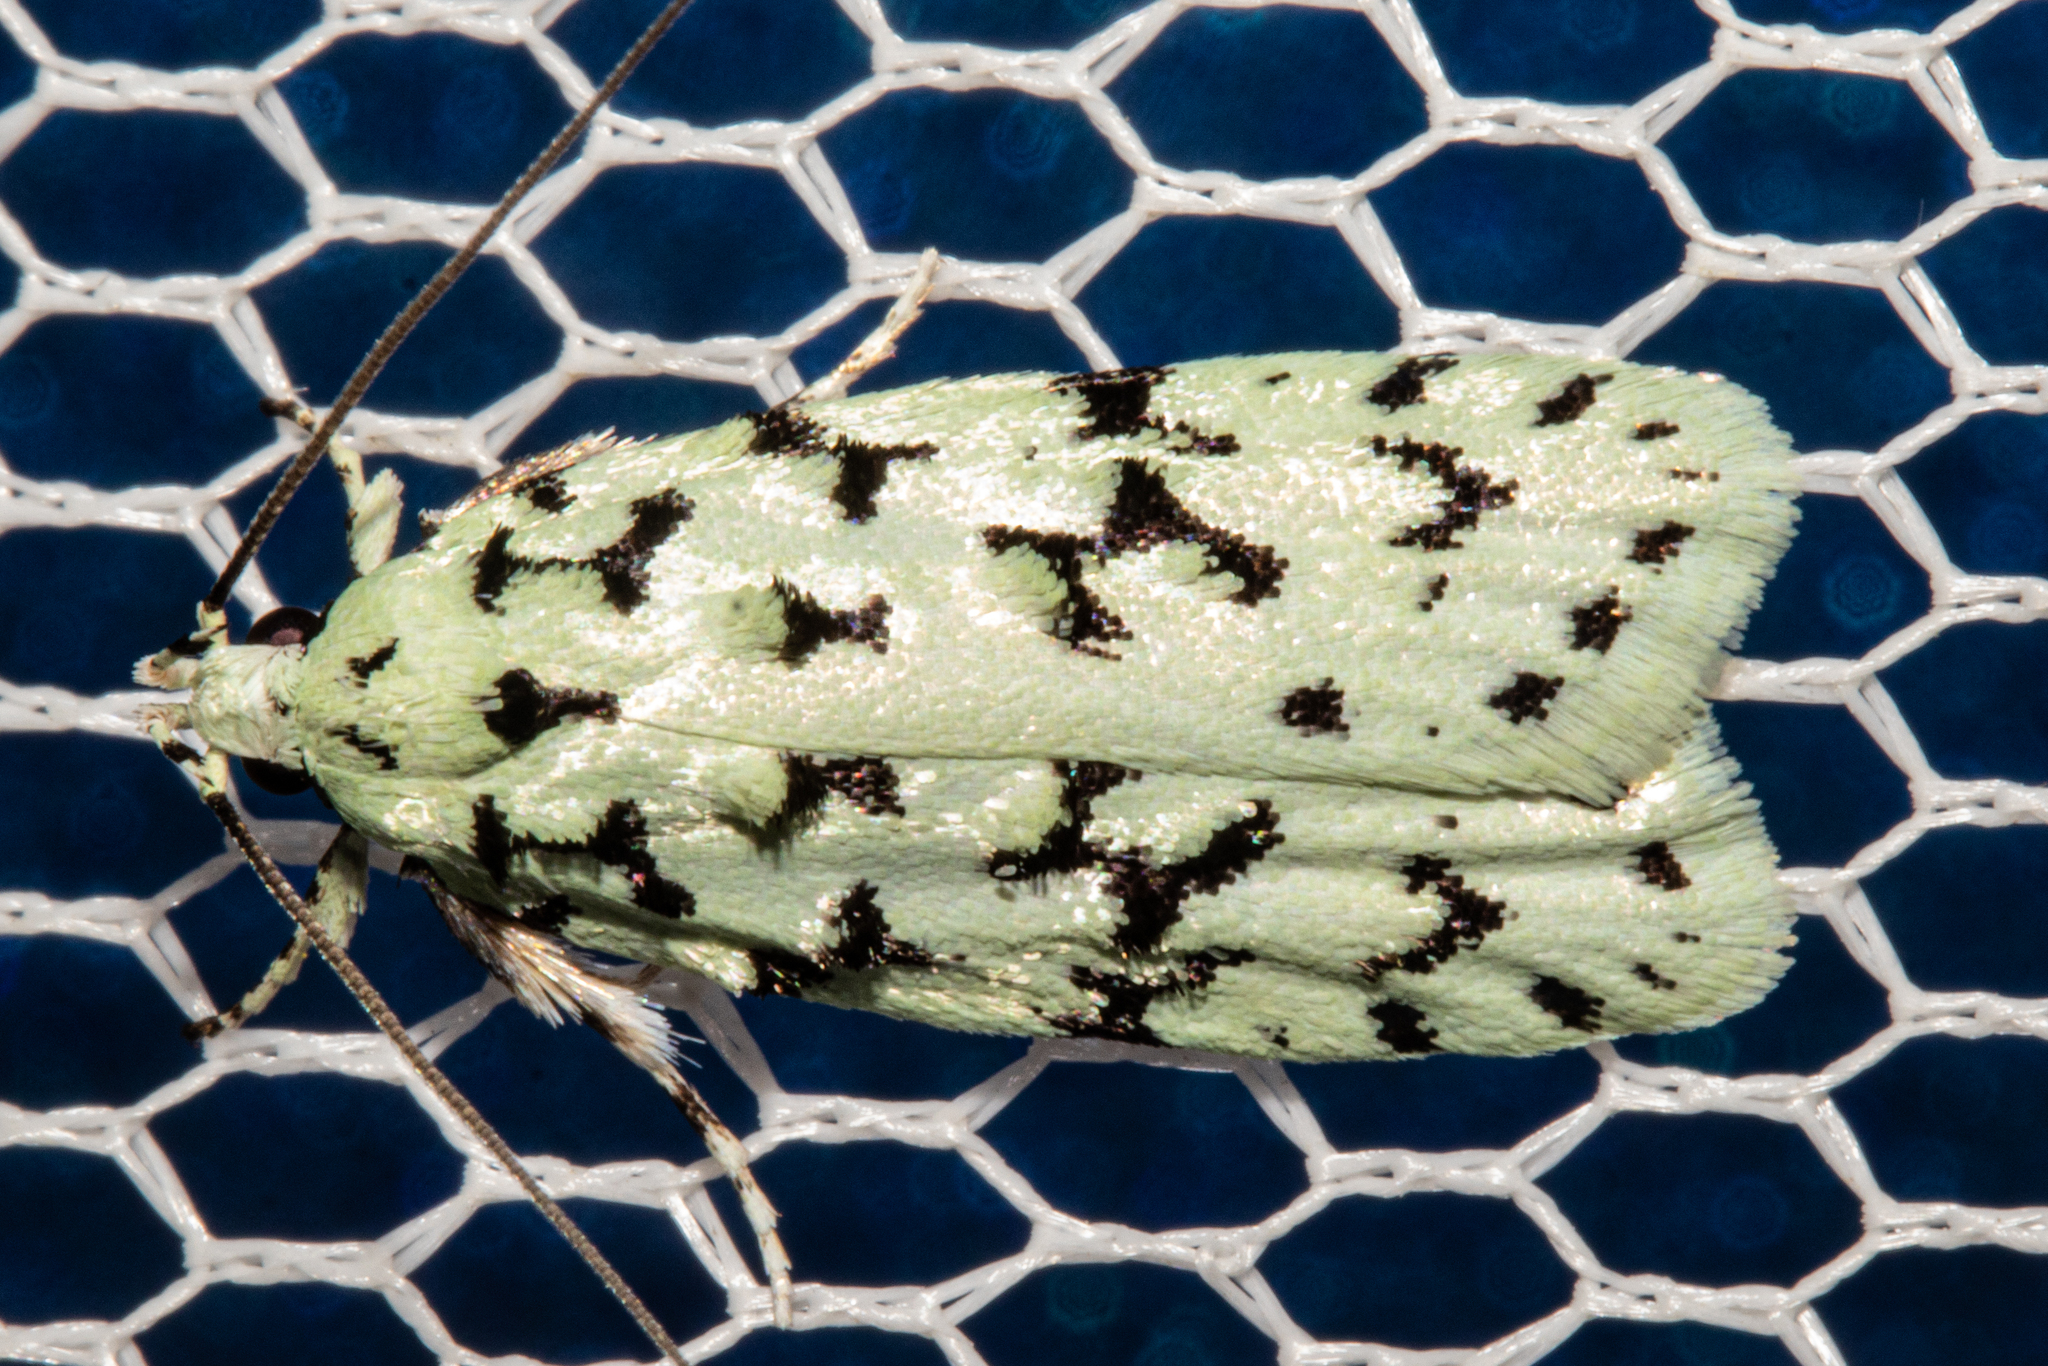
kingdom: Animalia
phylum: Arthropoda
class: Insecta
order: Lepidoptera
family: Oecophoridae
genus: Izatha
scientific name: Izatha huttoni
